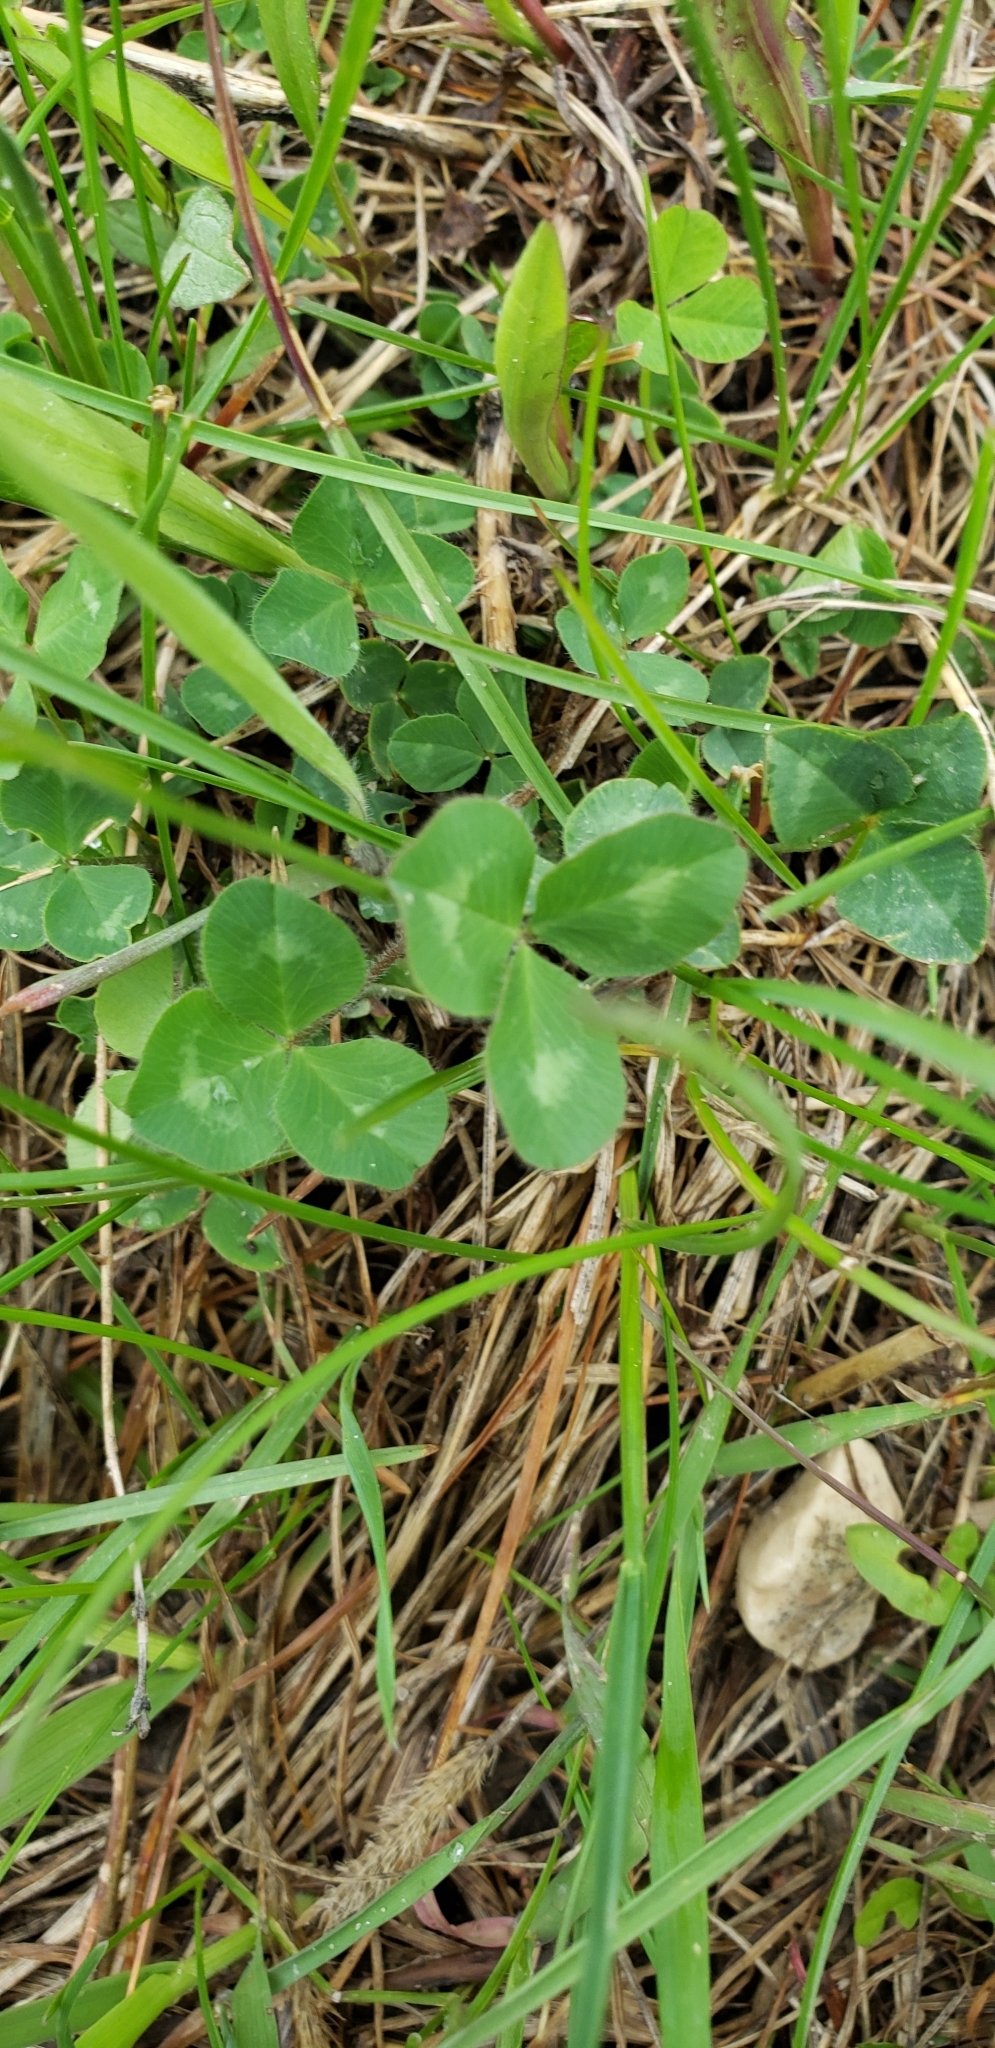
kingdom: Plantae
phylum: Tracheophyta
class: Magnoliopsida
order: Fabales
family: Fabaceae
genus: Trifolium
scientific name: Trifolium pratense
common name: Red clover
